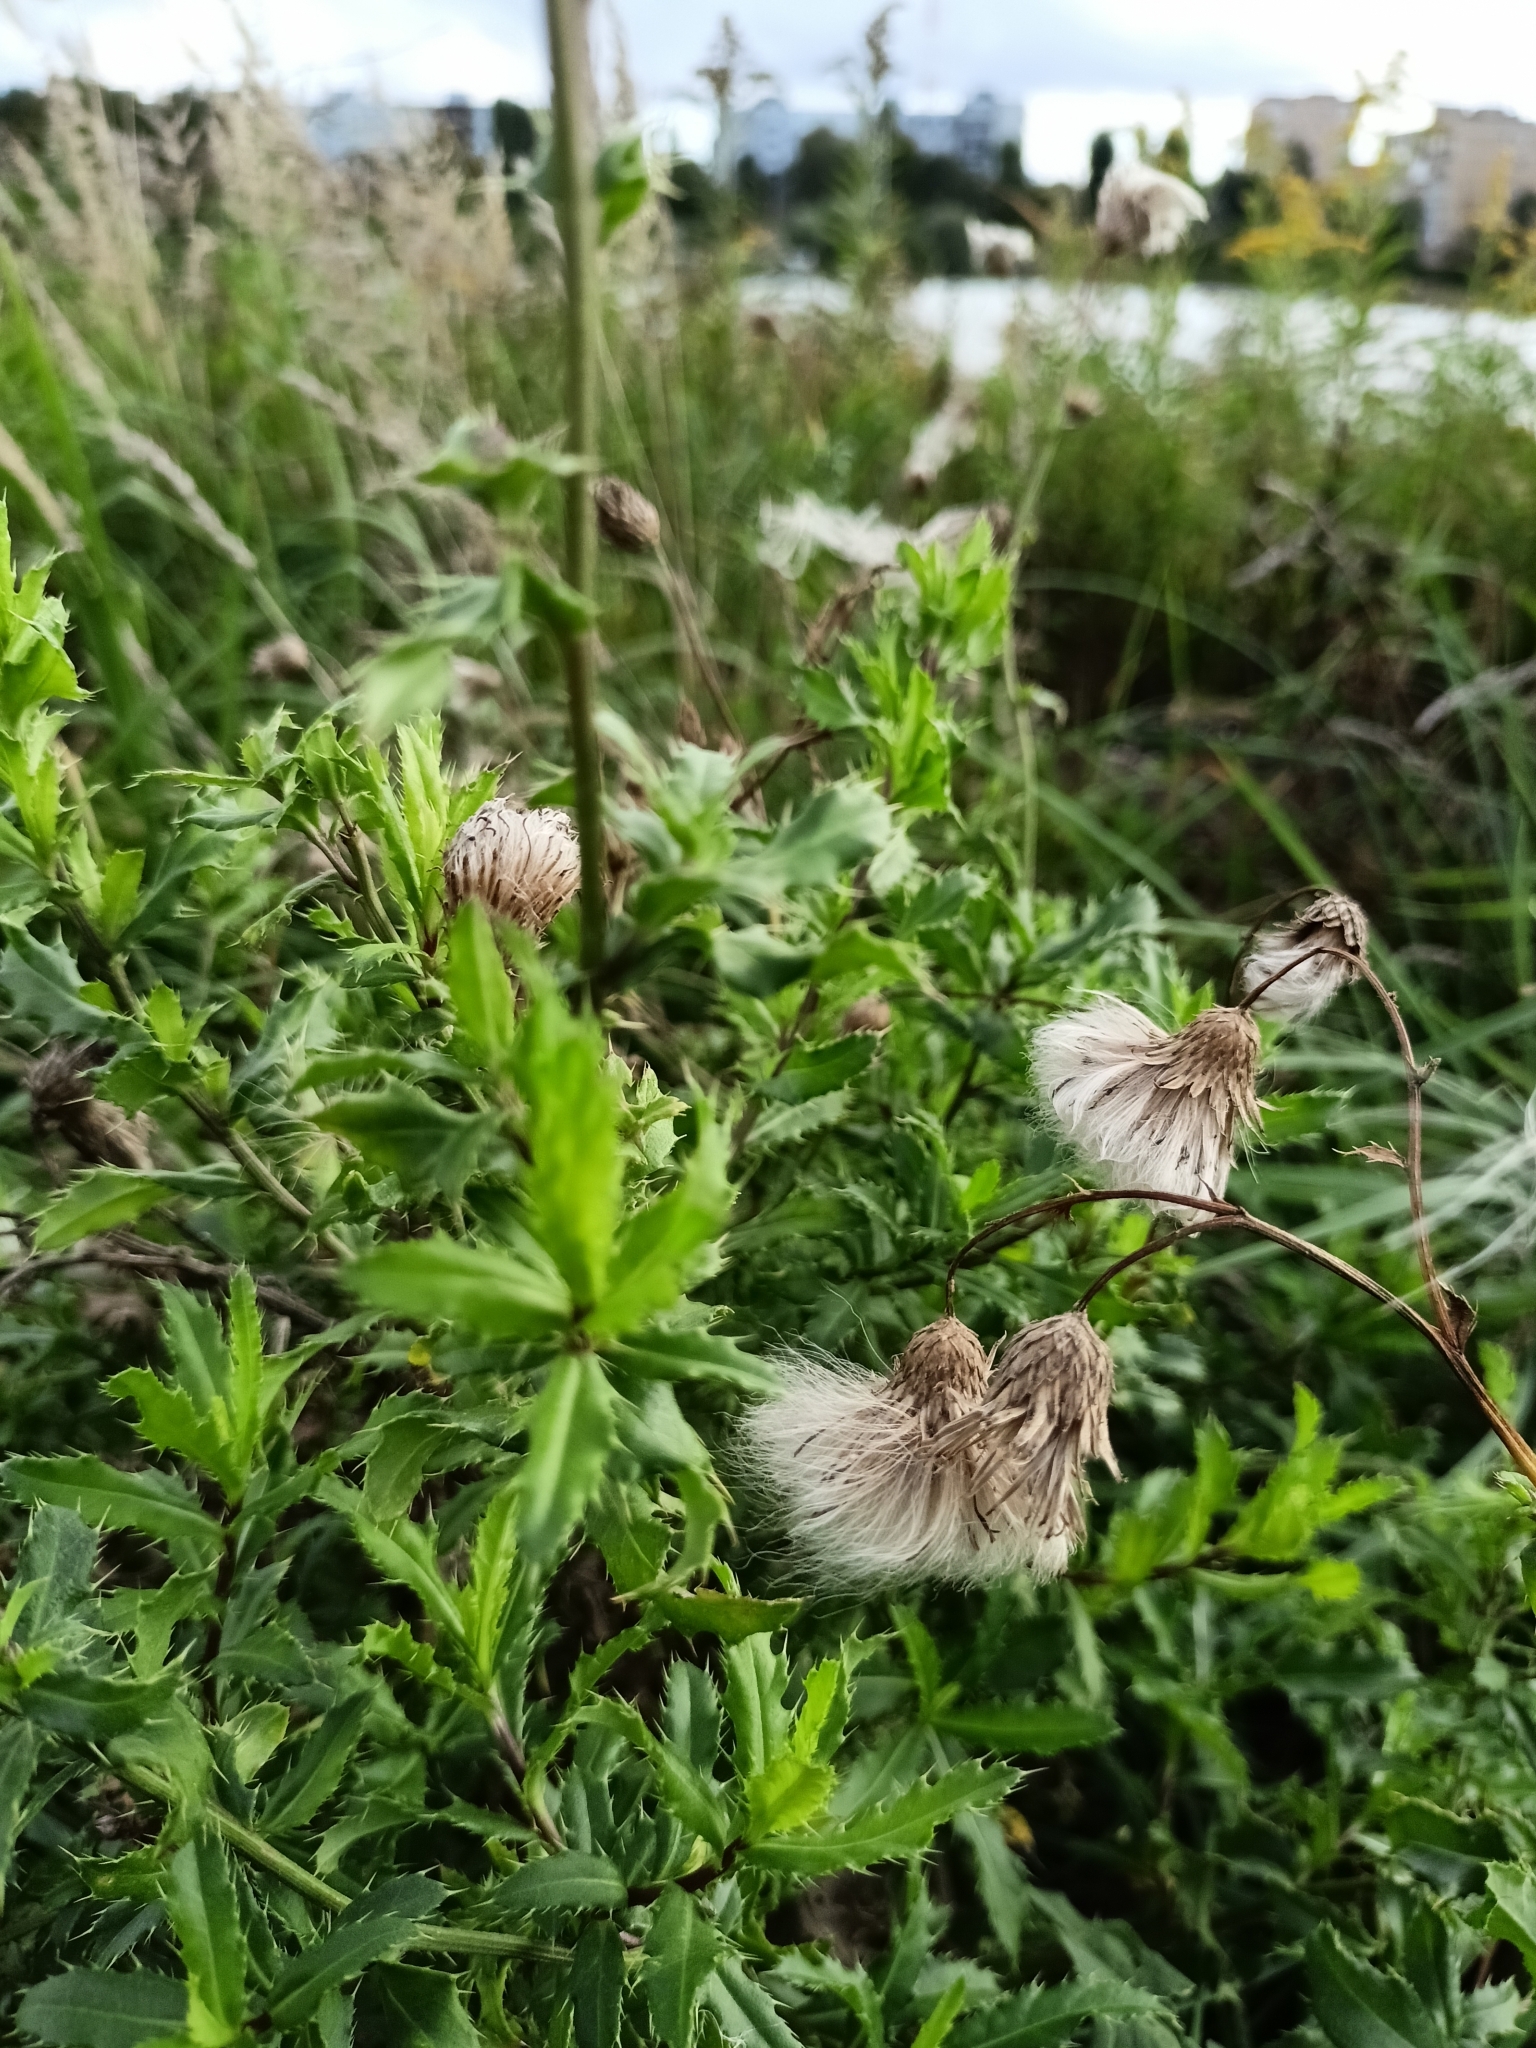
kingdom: Plantae
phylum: Tracheophyta
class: Magnoliopsida
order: Asterales
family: Asteraceae
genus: Cirsium
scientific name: Cirsium arvense
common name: Creeping thistle
